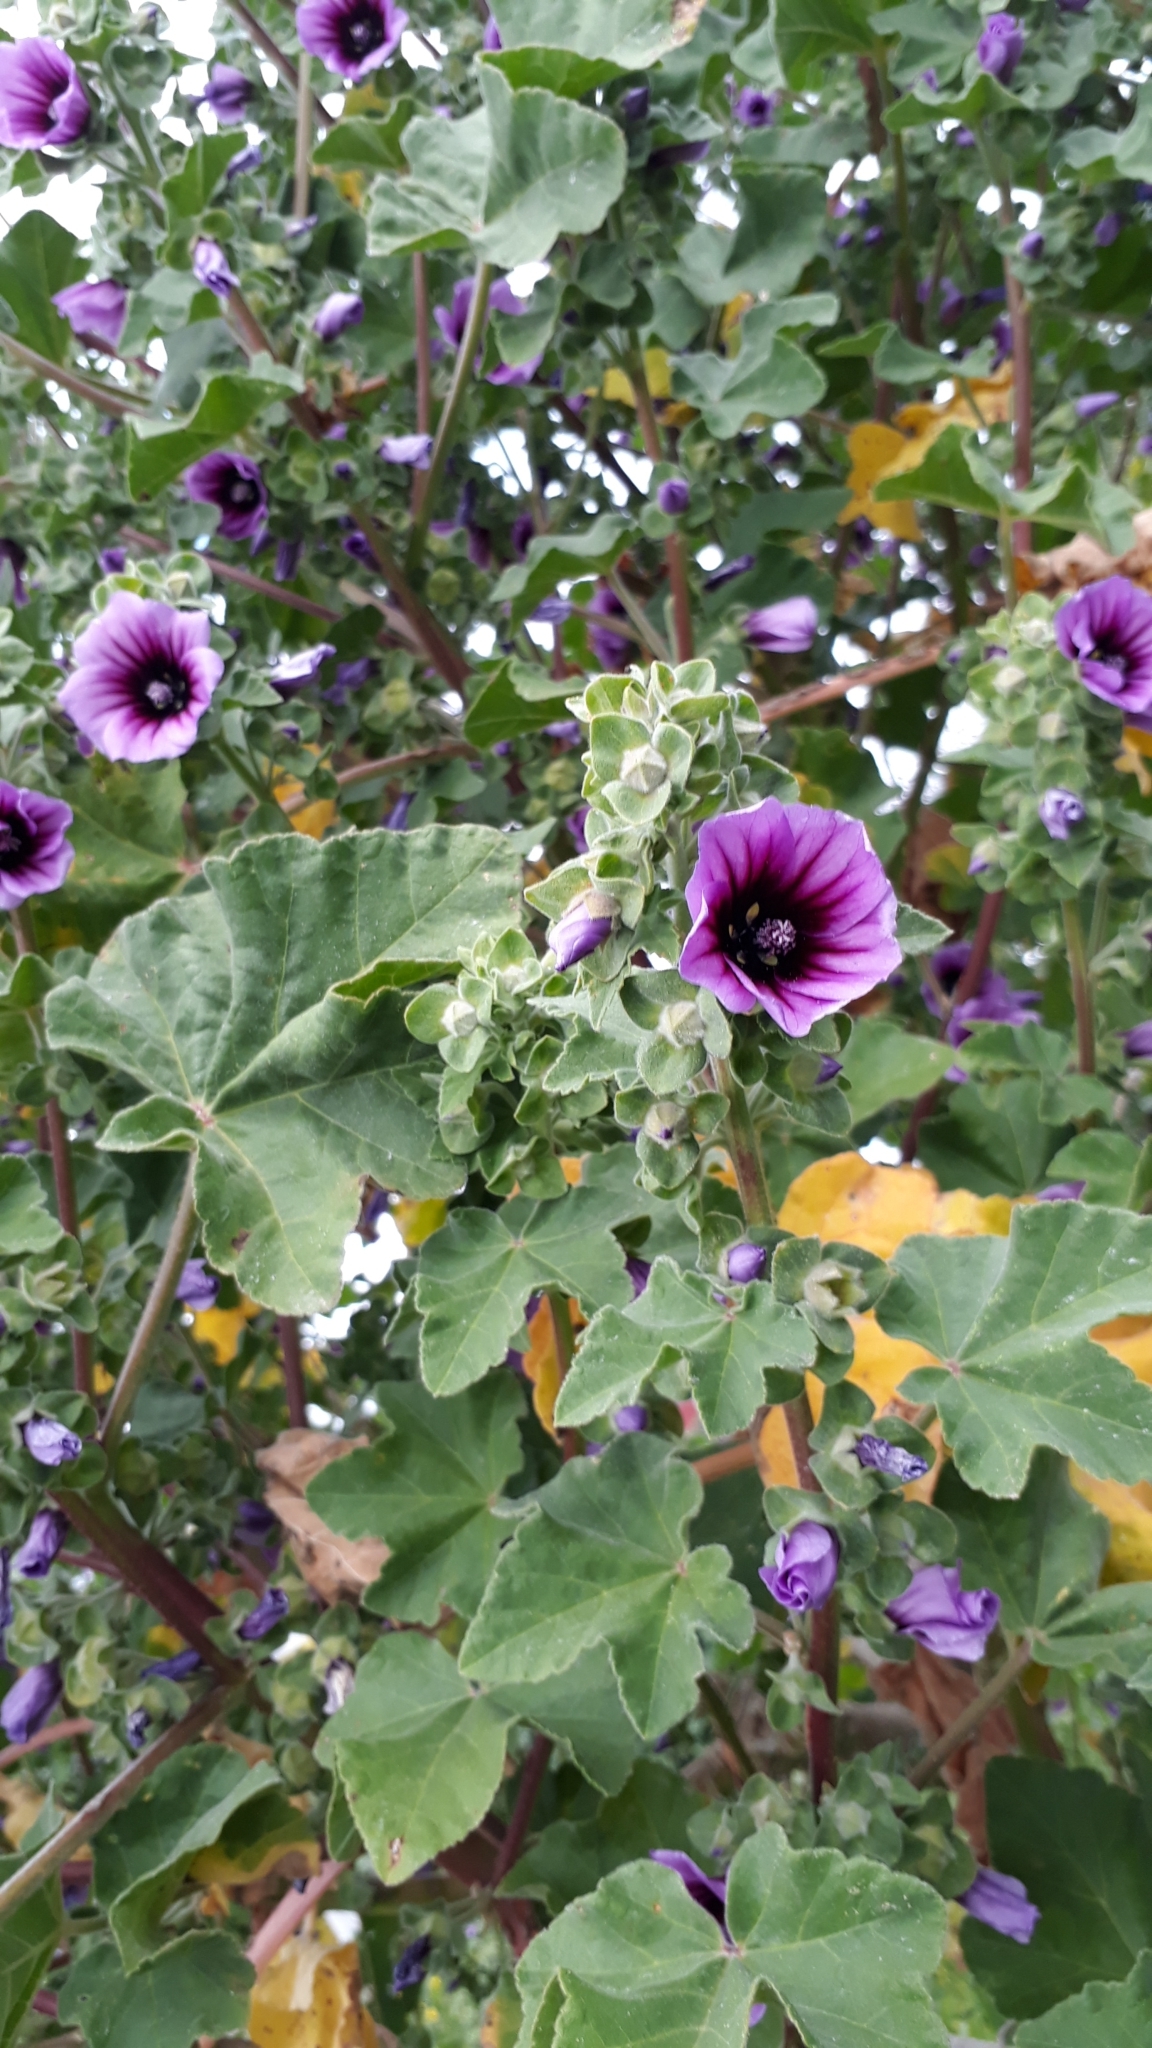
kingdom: Plantae
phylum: Tracheophyta
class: Magnoliopsida
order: Malvales
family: Malvaceae
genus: Malva
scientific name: Malva arborea
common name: Tree mallow
